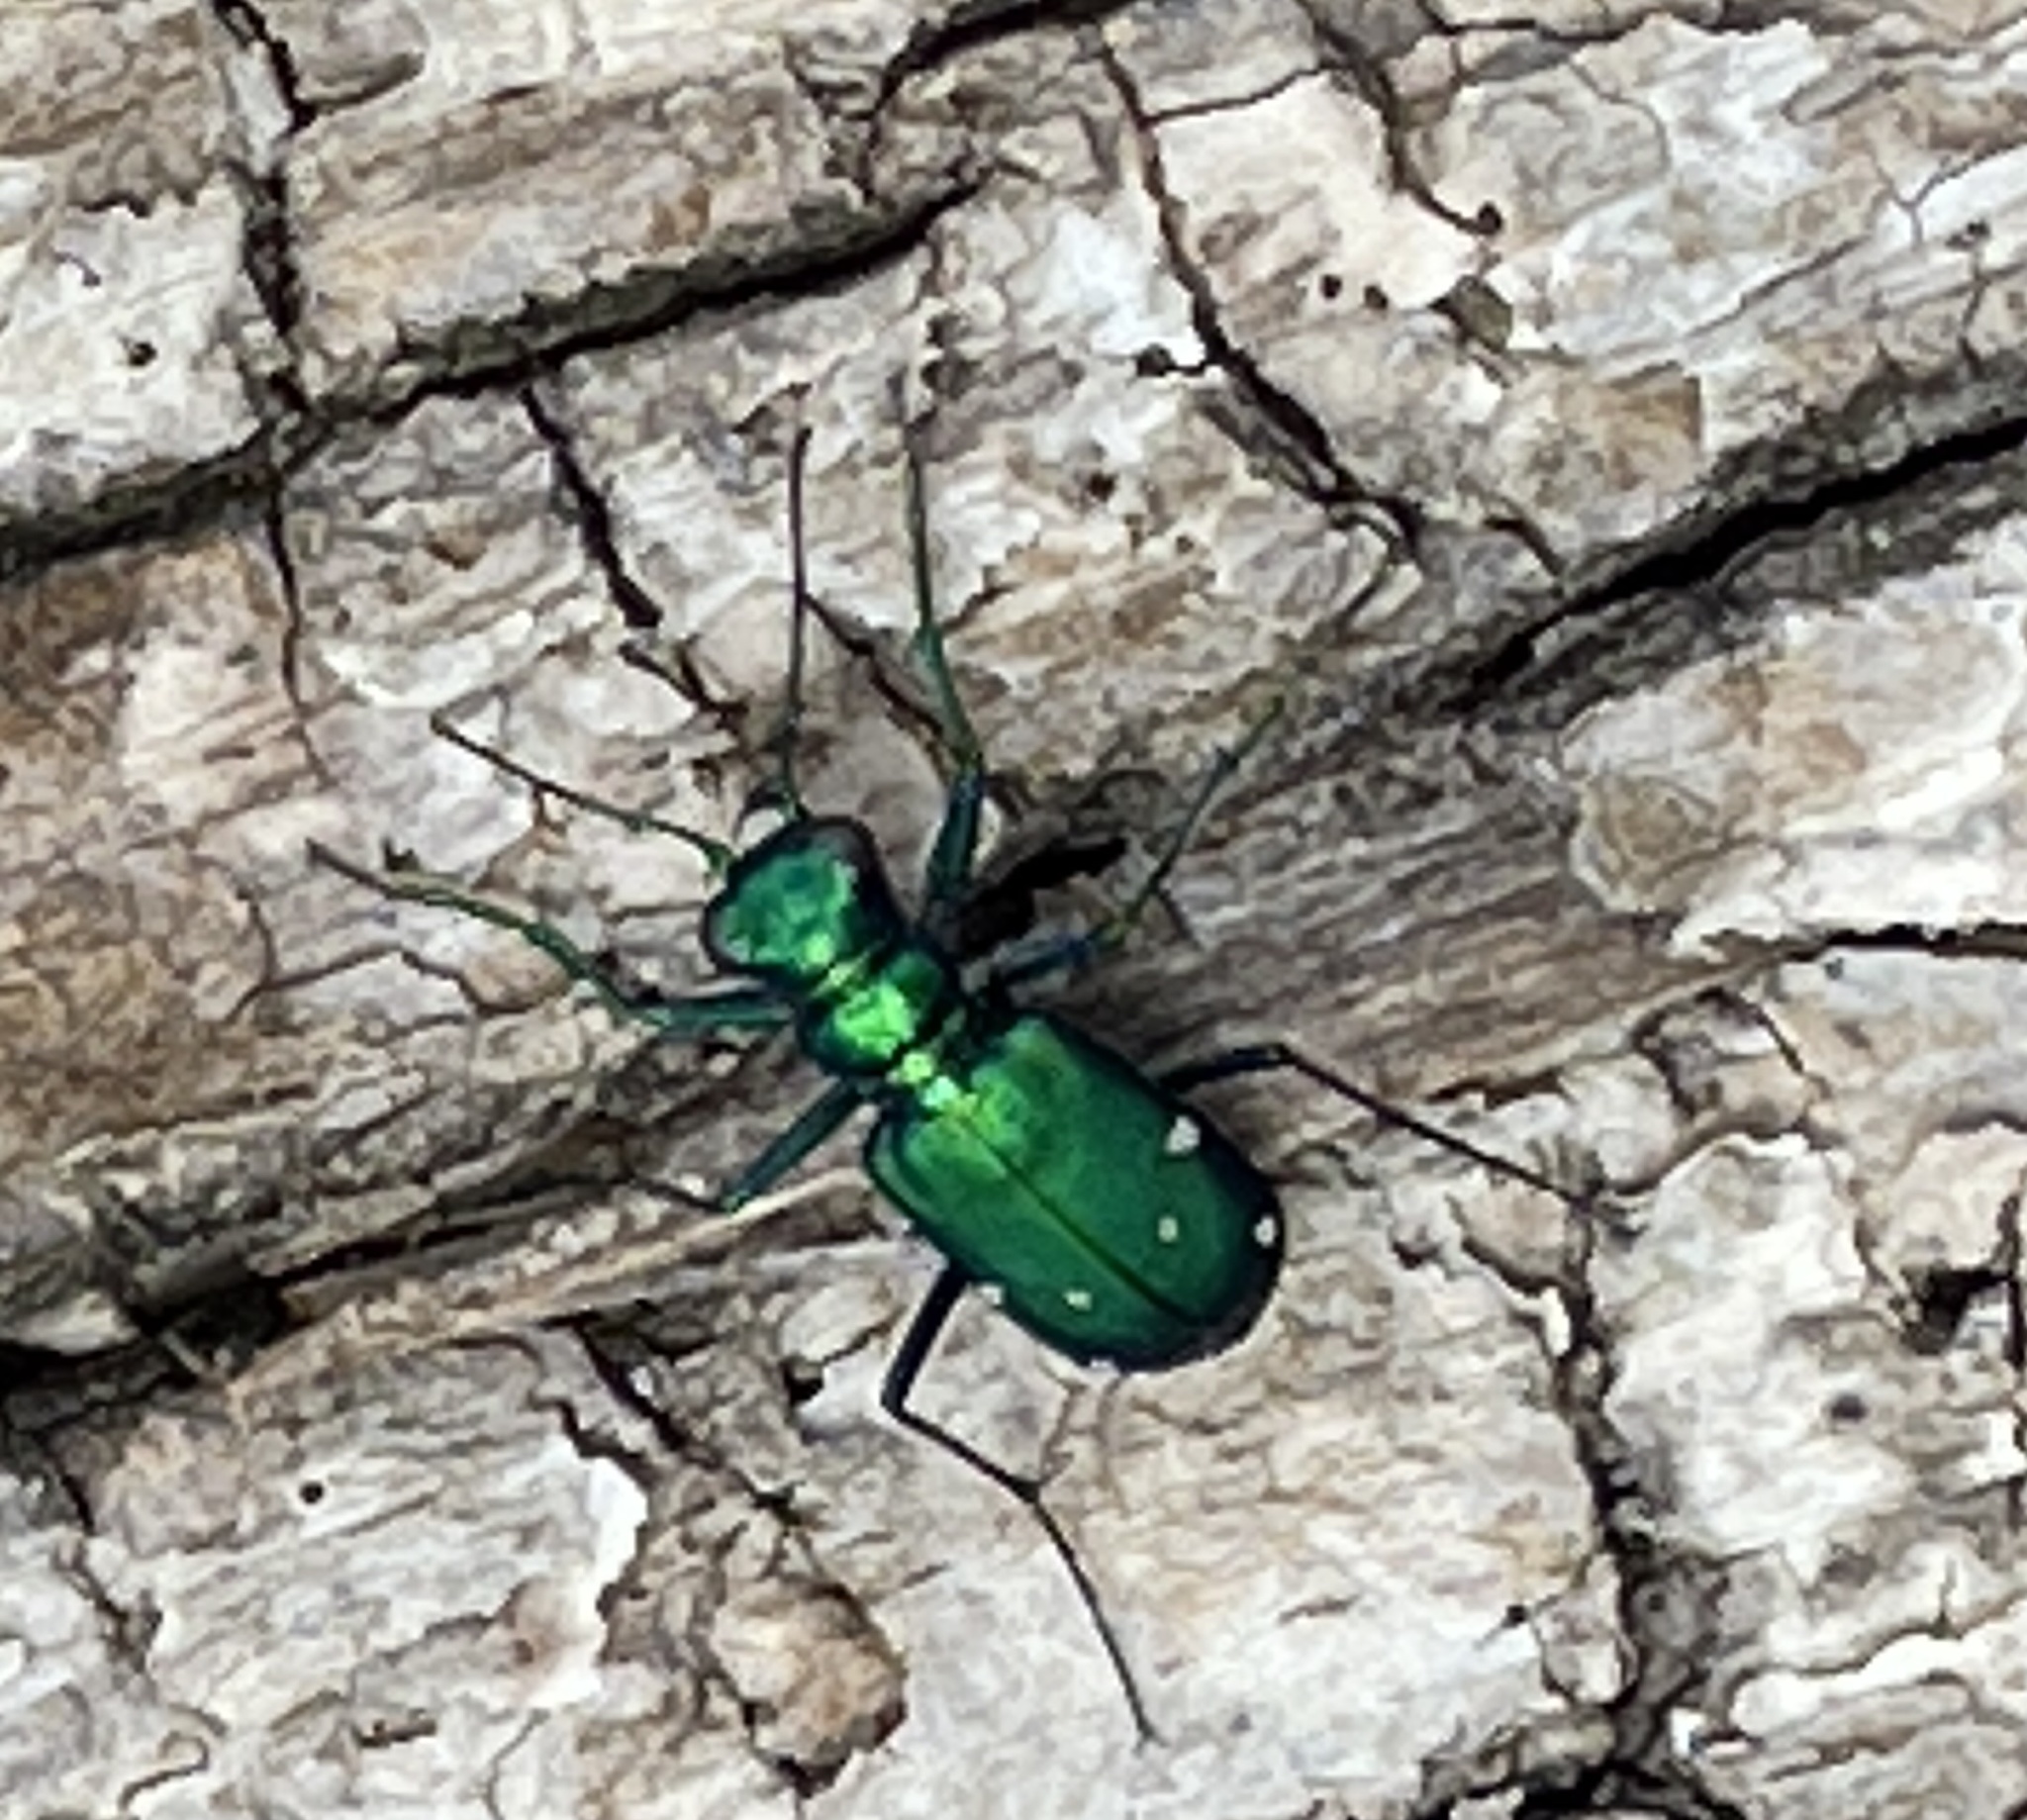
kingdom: Animalia
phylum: Arthropoda
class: Insecta
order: Coleoptera
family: Carabidae
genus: Cicindela
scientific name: Cicindela sexguttata
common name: Six-spotted tiger beetle
